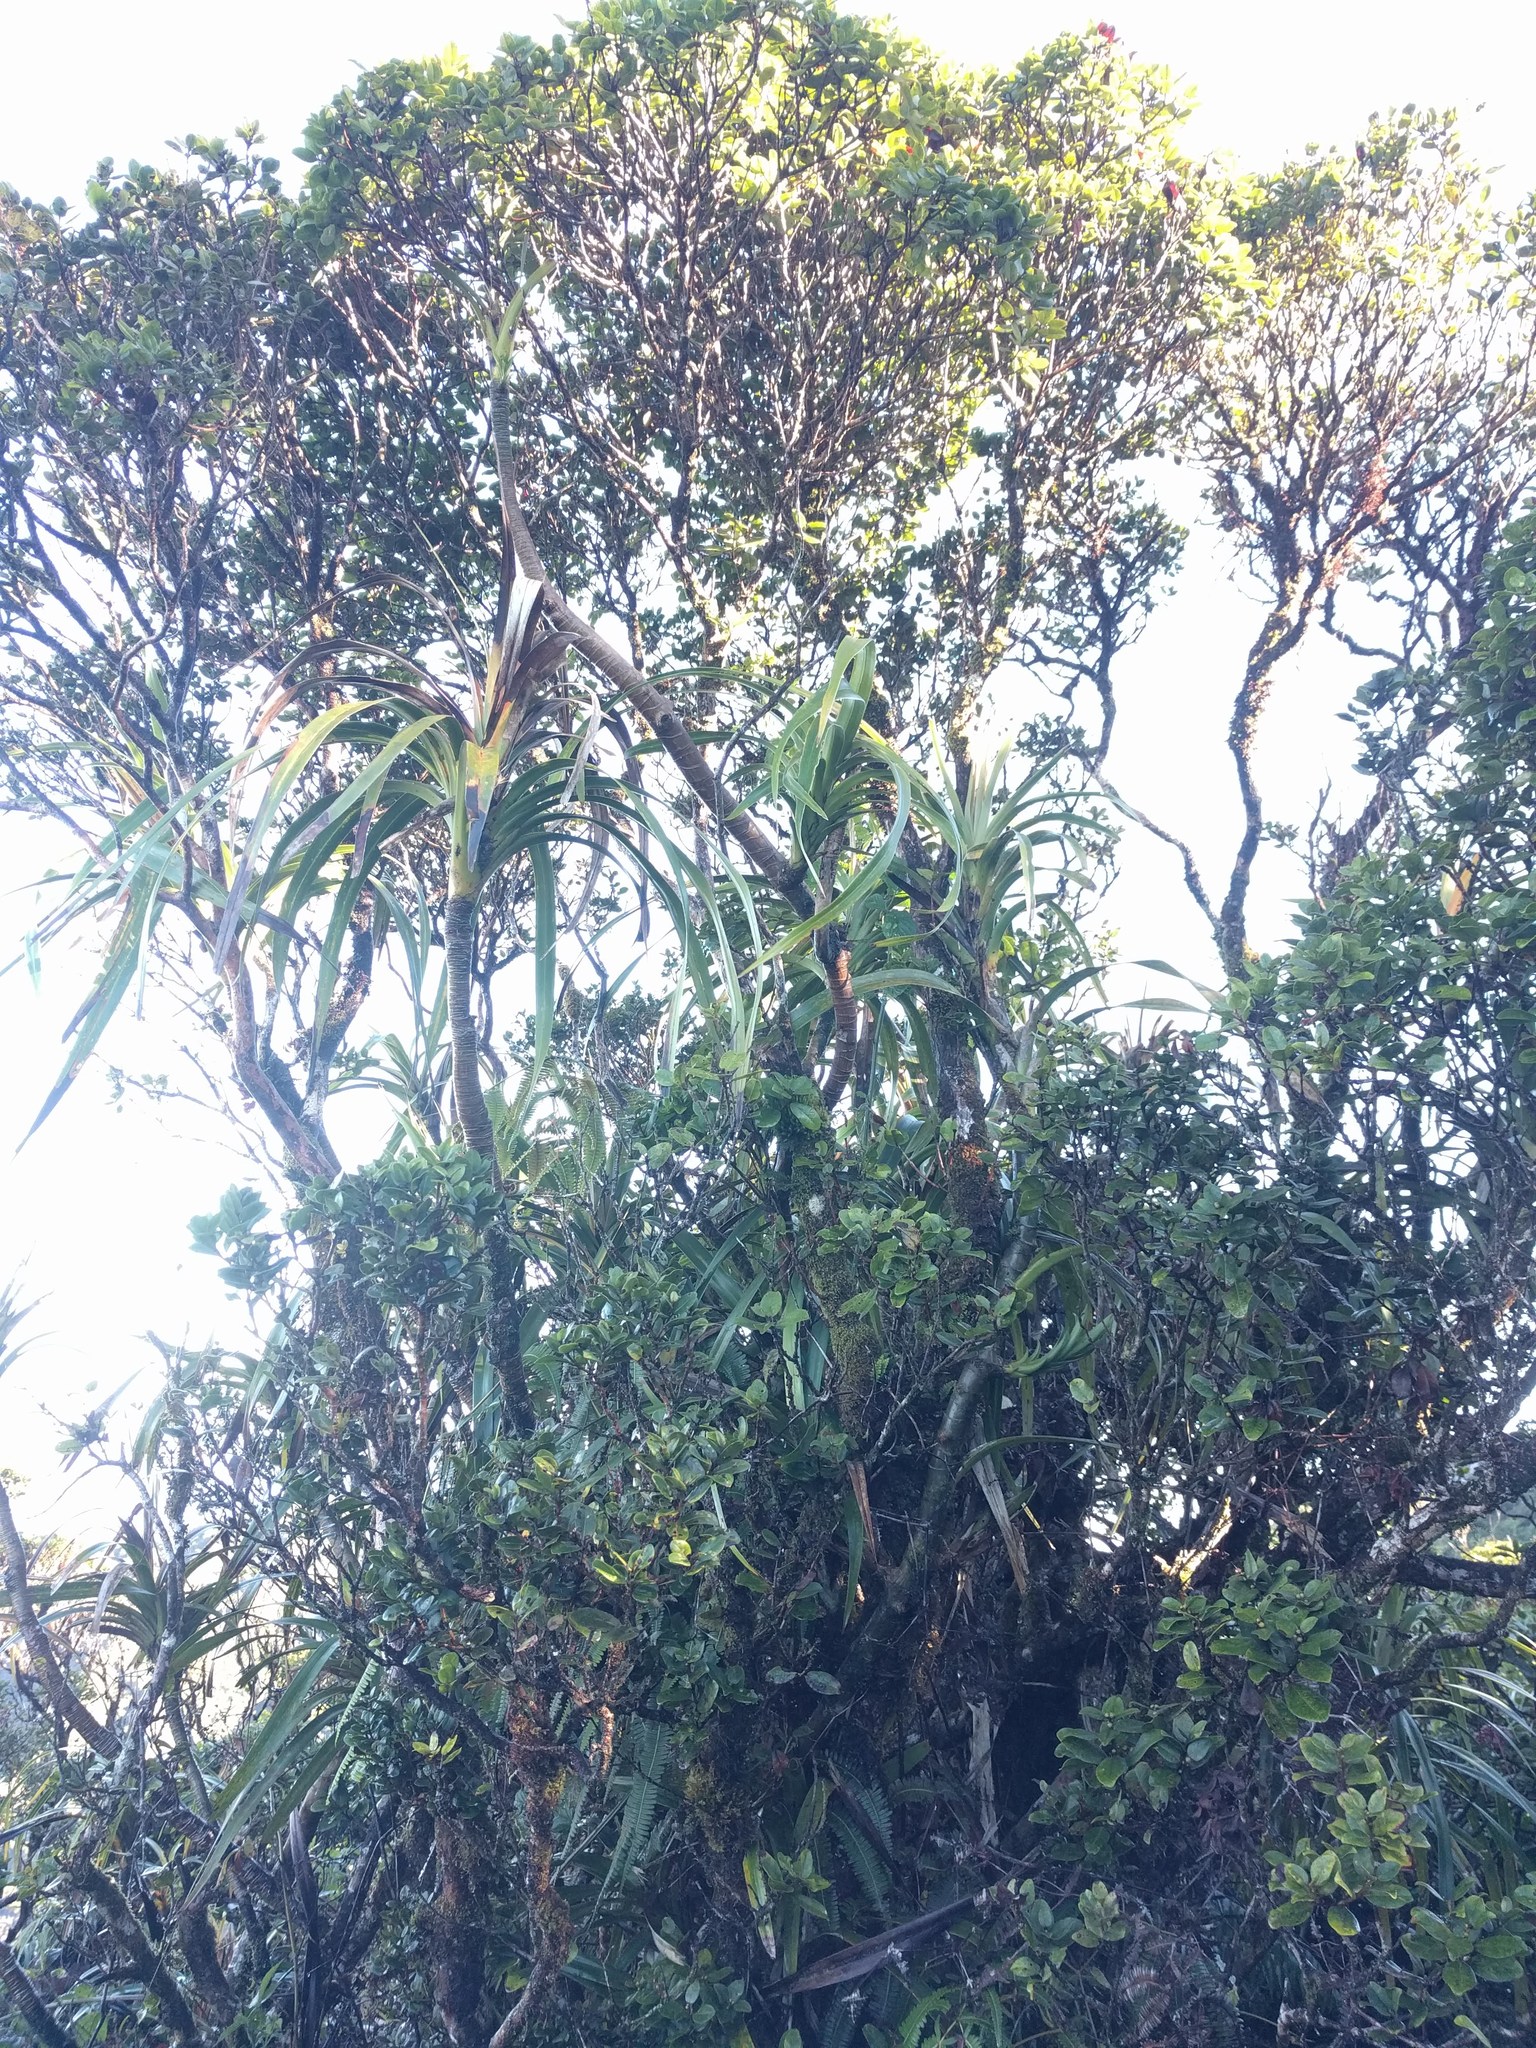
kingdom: Plantae
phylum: Tracheophyta
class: Liliopsida
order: Pandanales
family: Pandanaceae
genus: Freycinetia
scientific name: Freycinetia arborea
